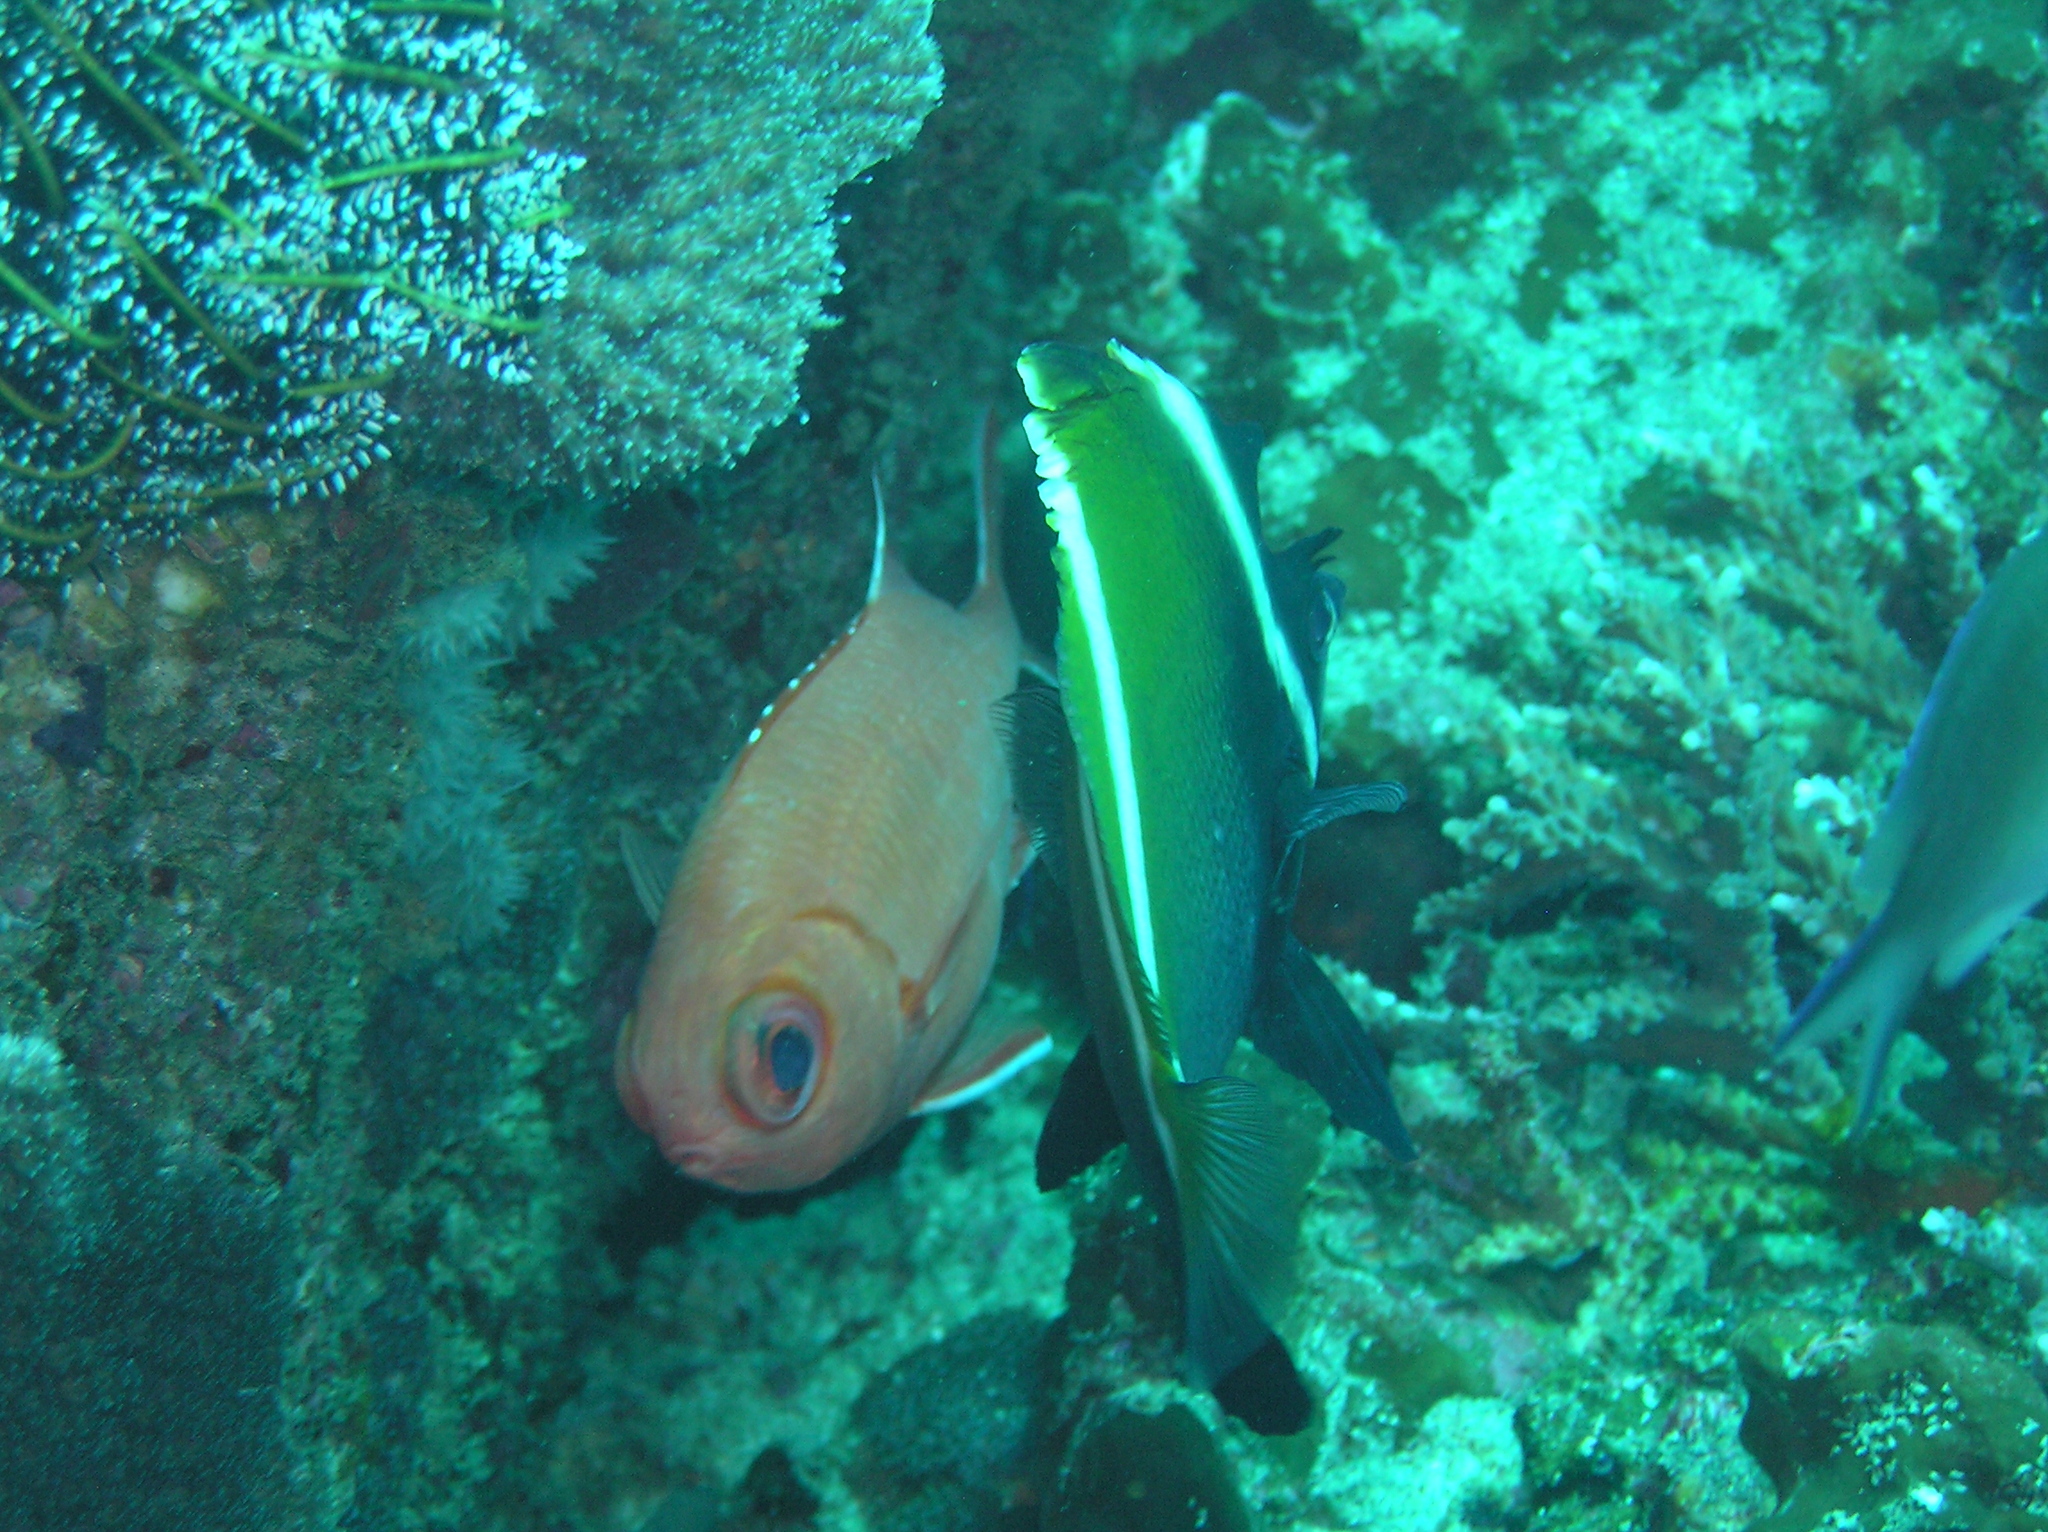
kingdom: Animalia
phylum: Chordata
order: Perciformes
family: Chaetodontidae
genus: Heniochus
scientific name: Heniochus varius
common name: Horned bannerfish
